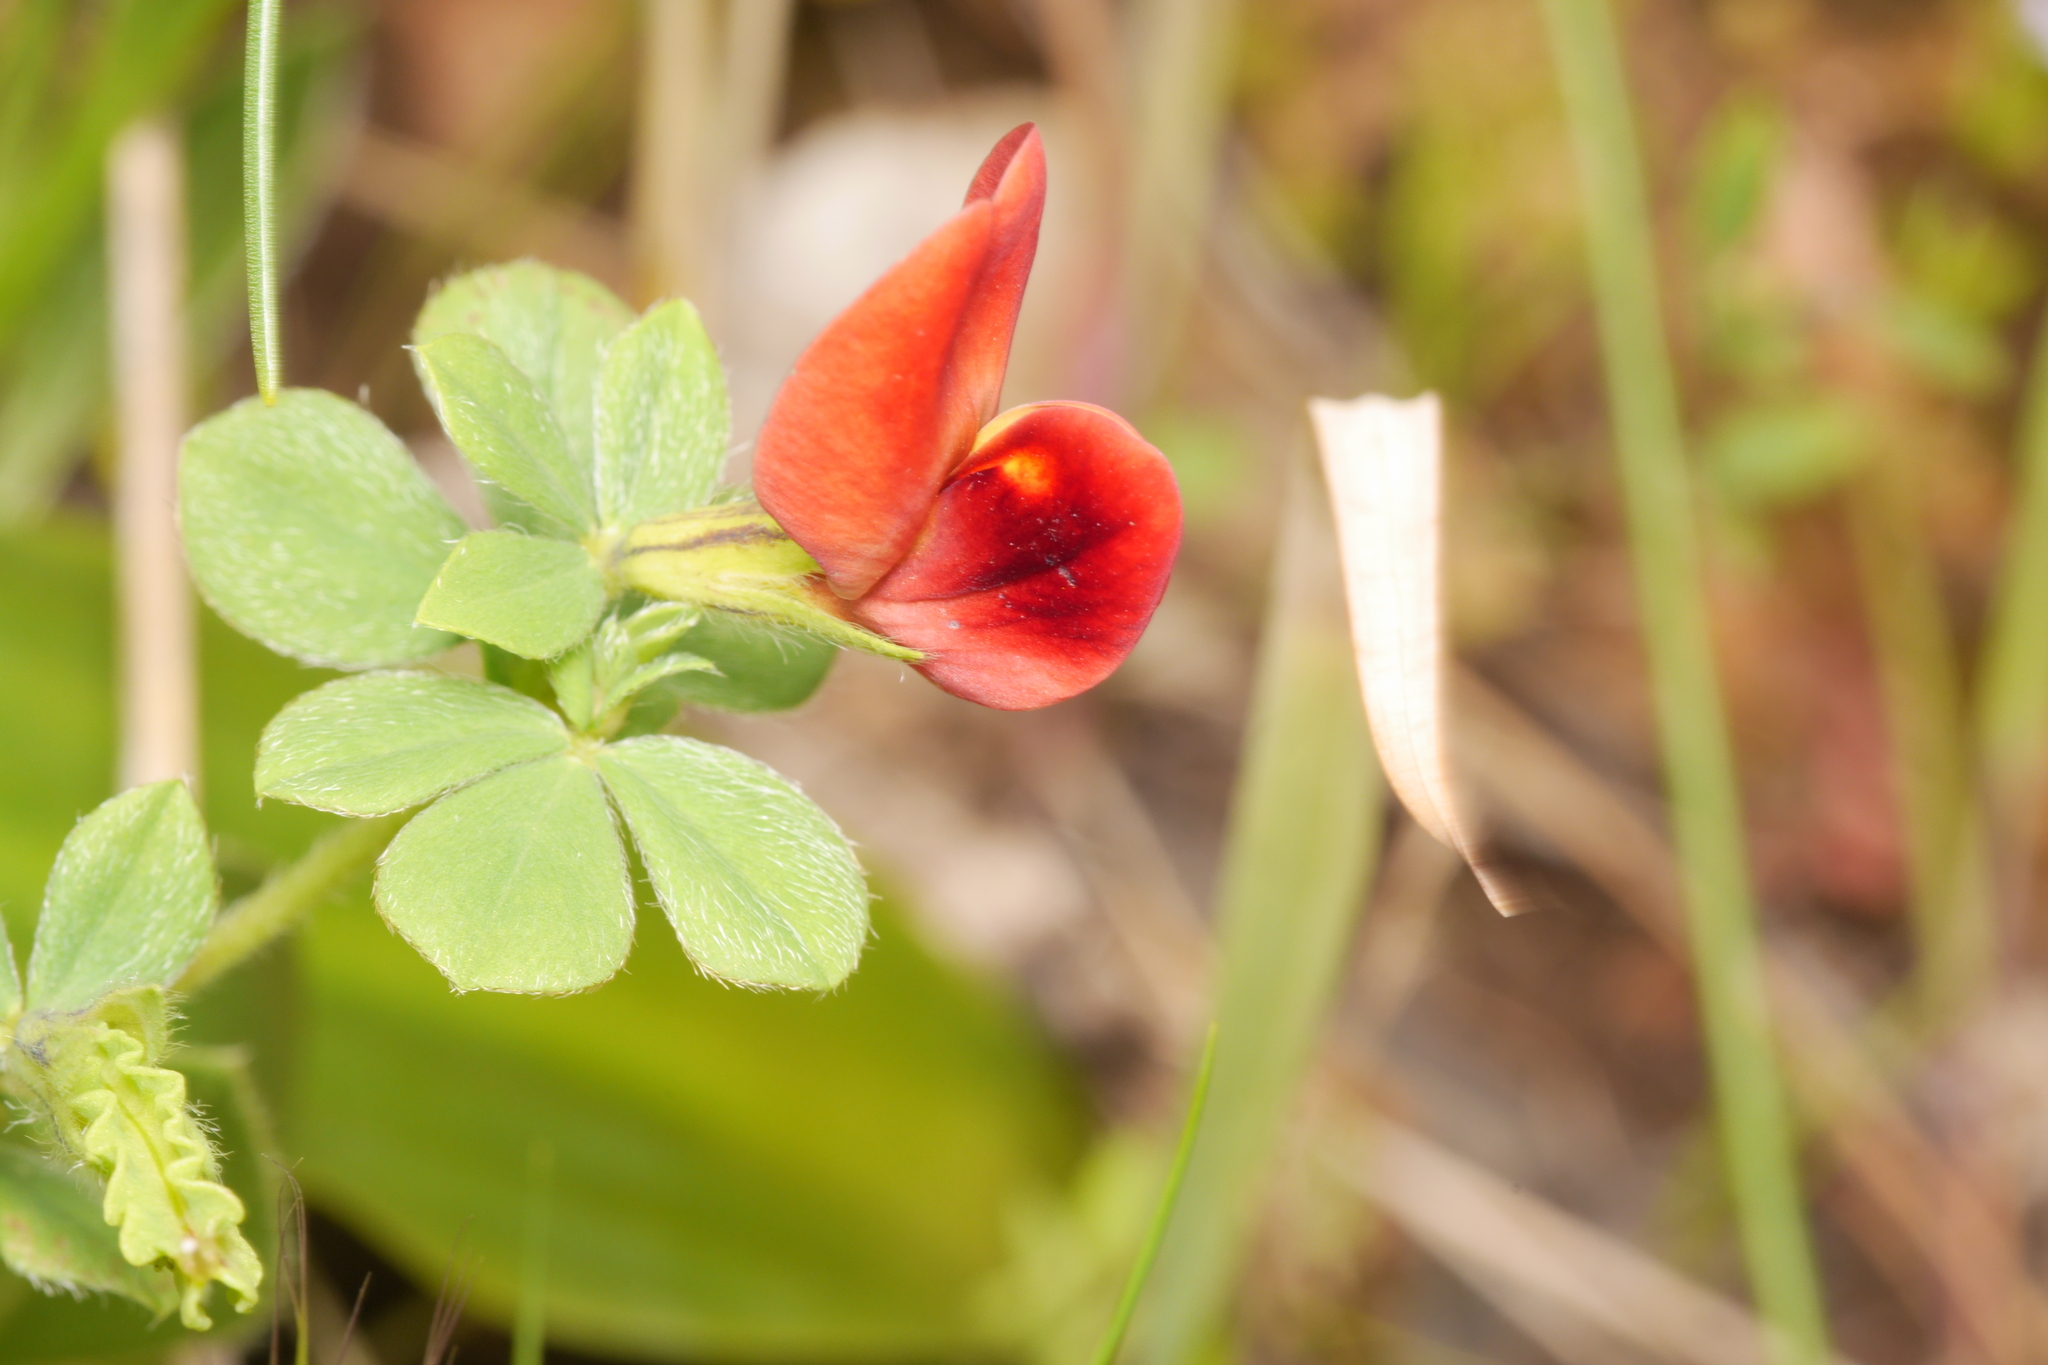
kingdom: Plantae
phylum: Tracheophyta
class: Magnoliopsida
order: Fabales
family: Fabaceae
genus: Lotus
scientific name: Lotus tetragonolobus
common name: Asparagus-pea
